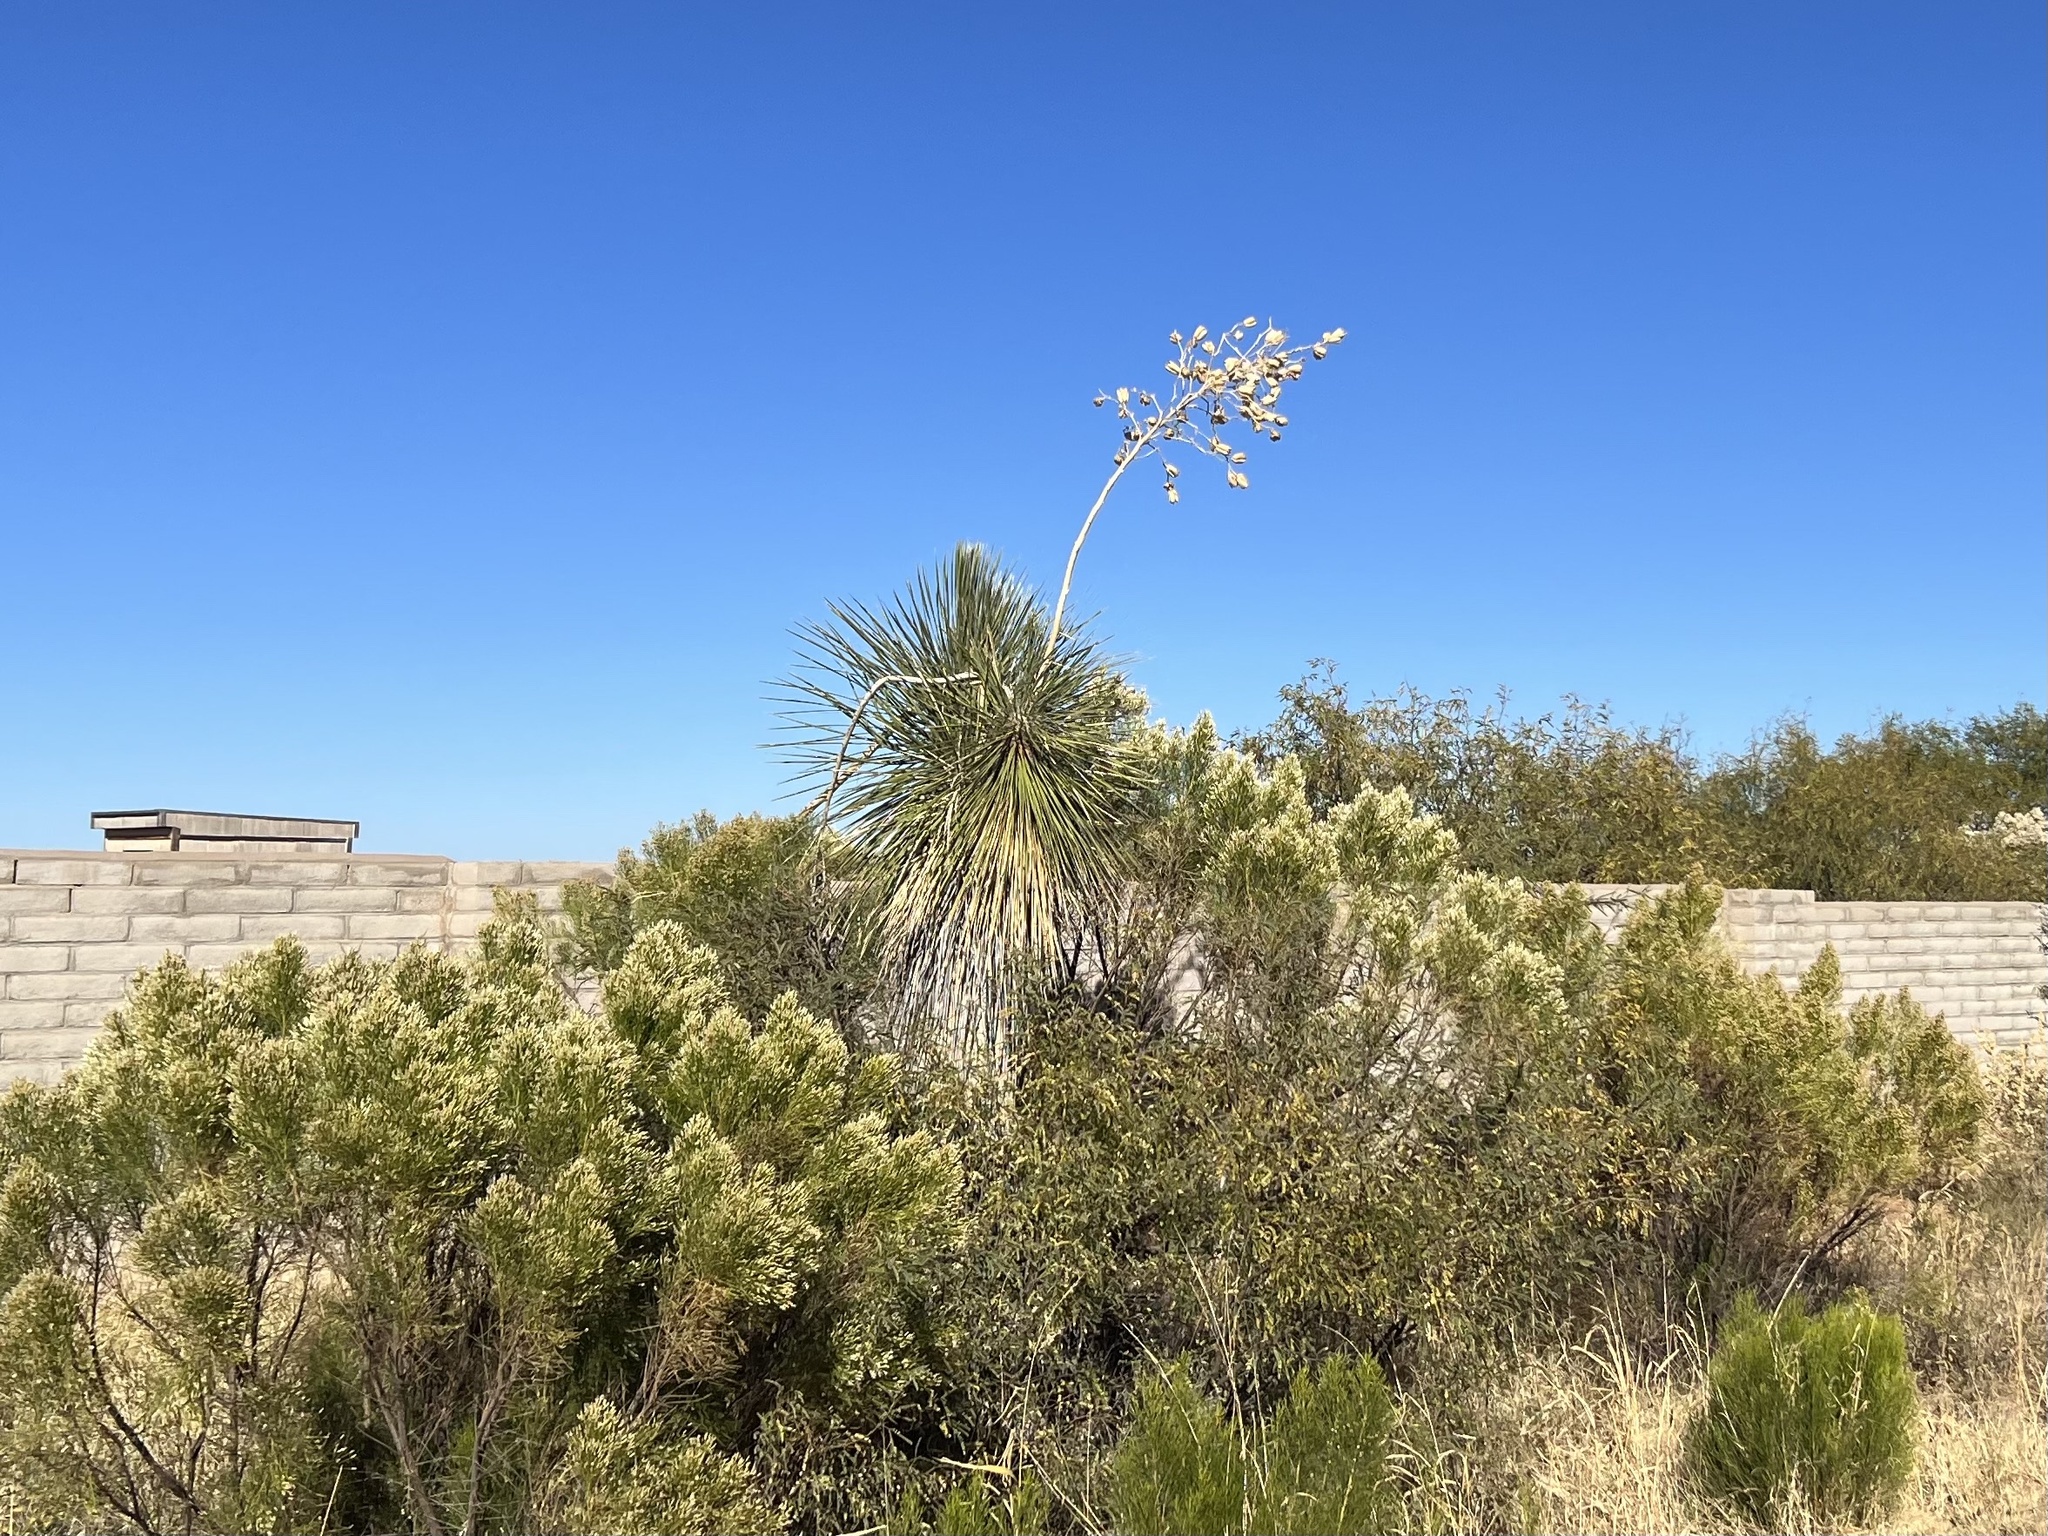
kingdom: Plantae
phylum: Tracheophyta
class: Liliopsida
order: Asparagales
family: Asparagaceae
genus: Yucca
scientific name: Yucca elata
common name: Palmella
